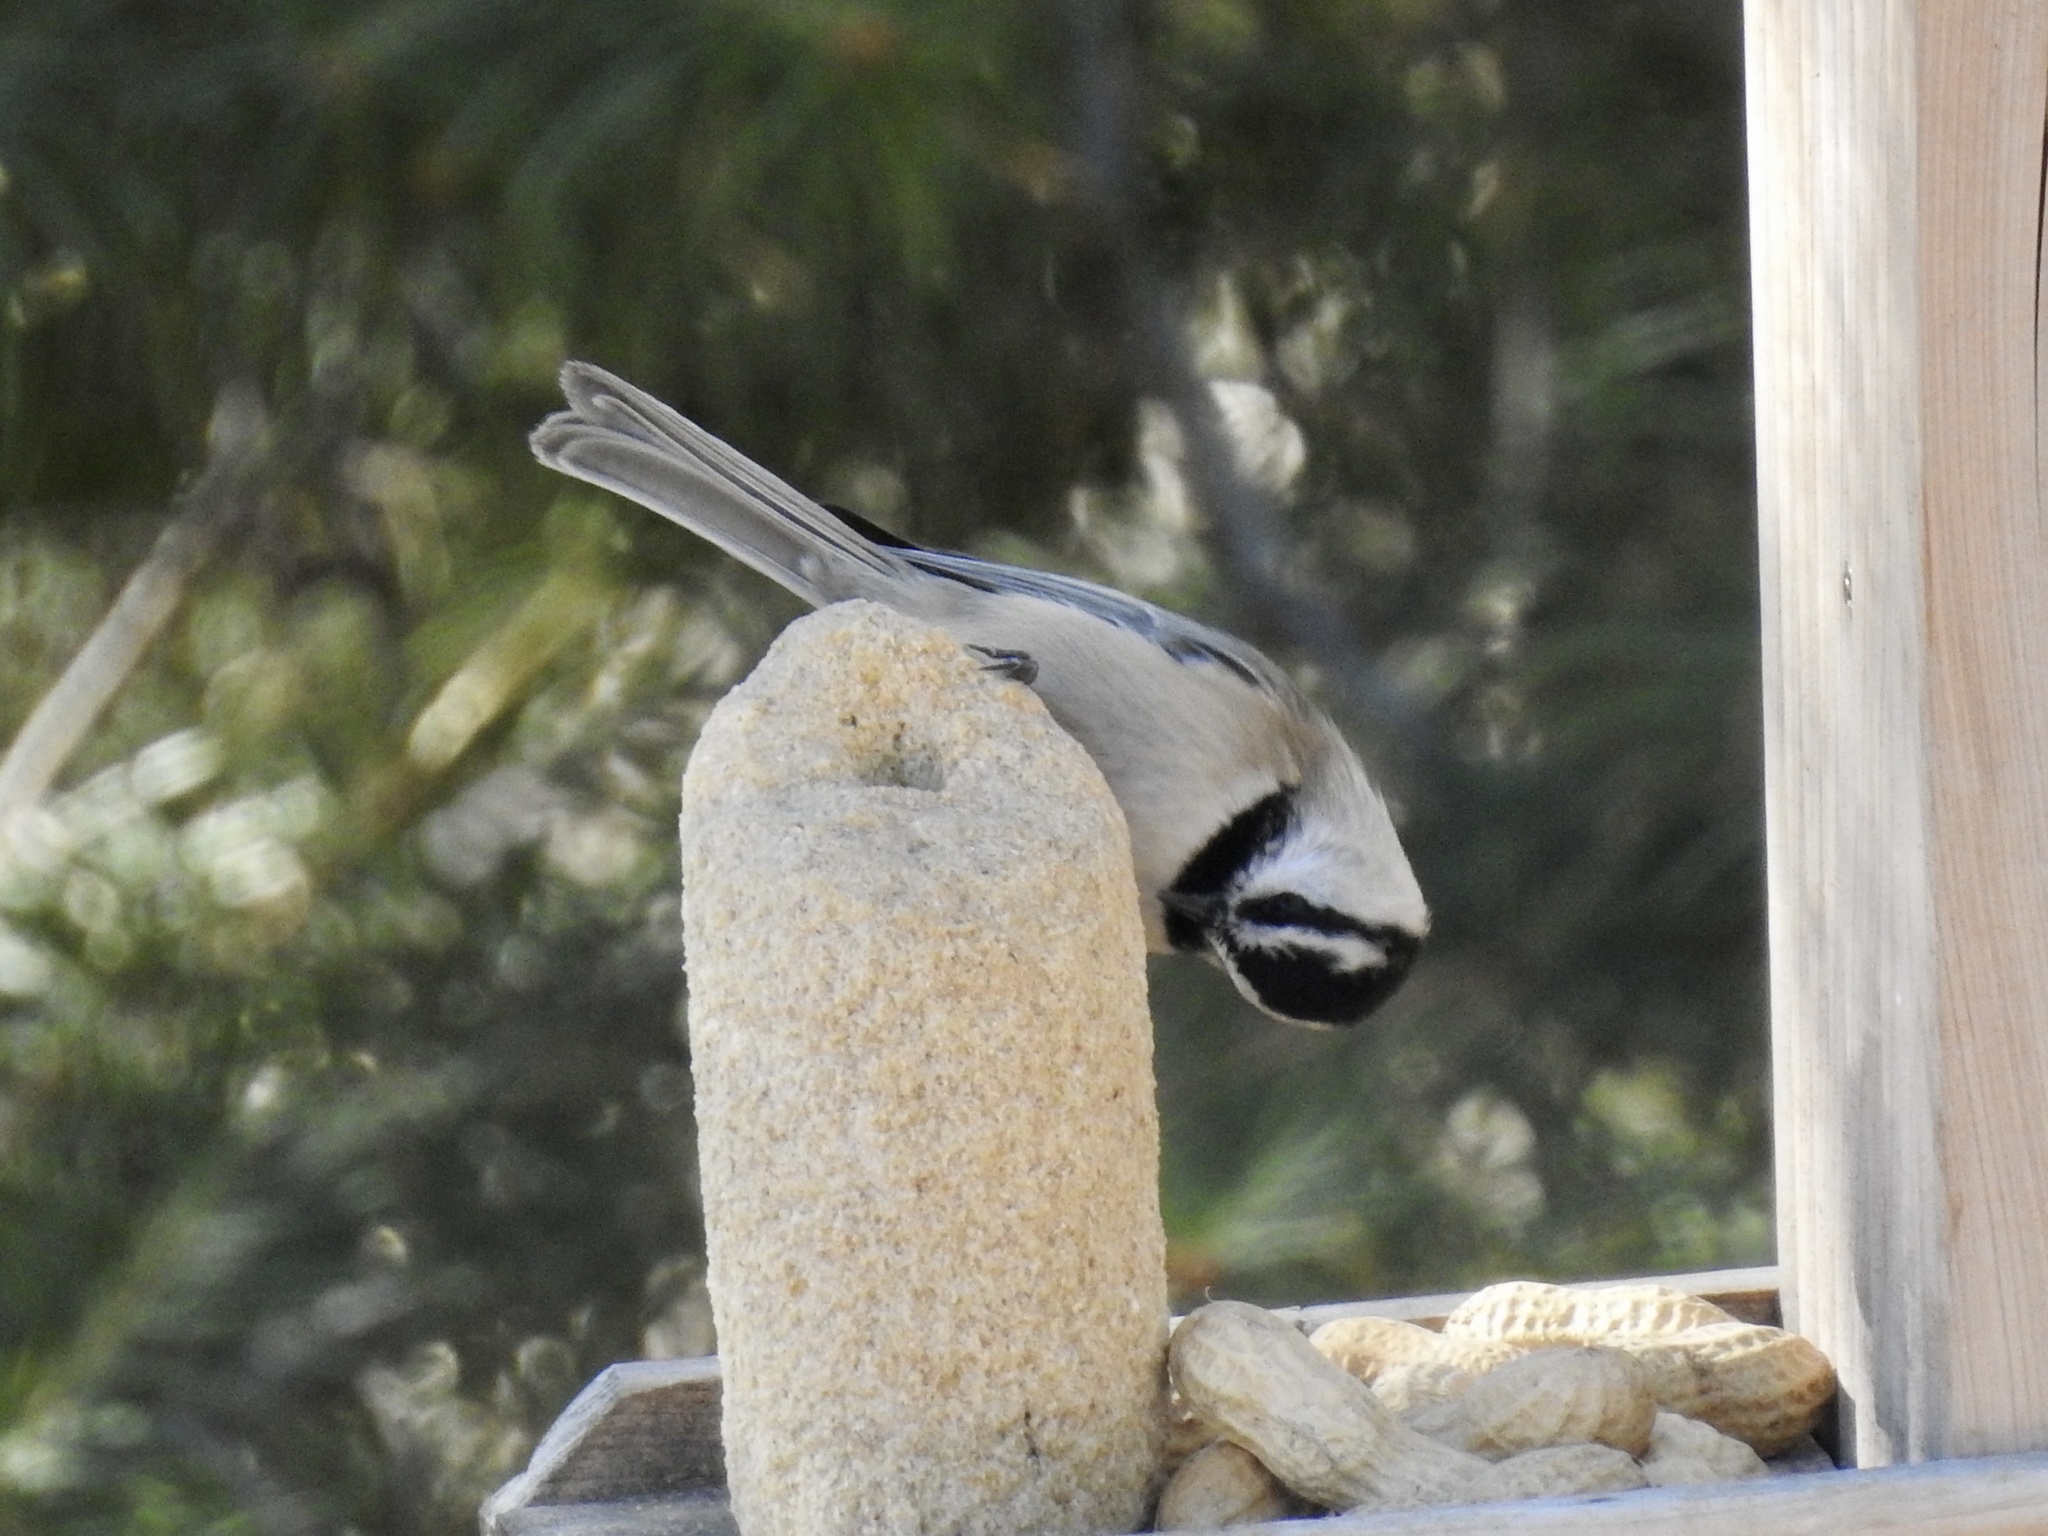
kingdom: Animalia
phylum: Chordata
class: Aves
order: Passeriformes
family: Paridae
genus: Poecile
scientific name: Poecile gambeli
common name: Mountain chickadee
